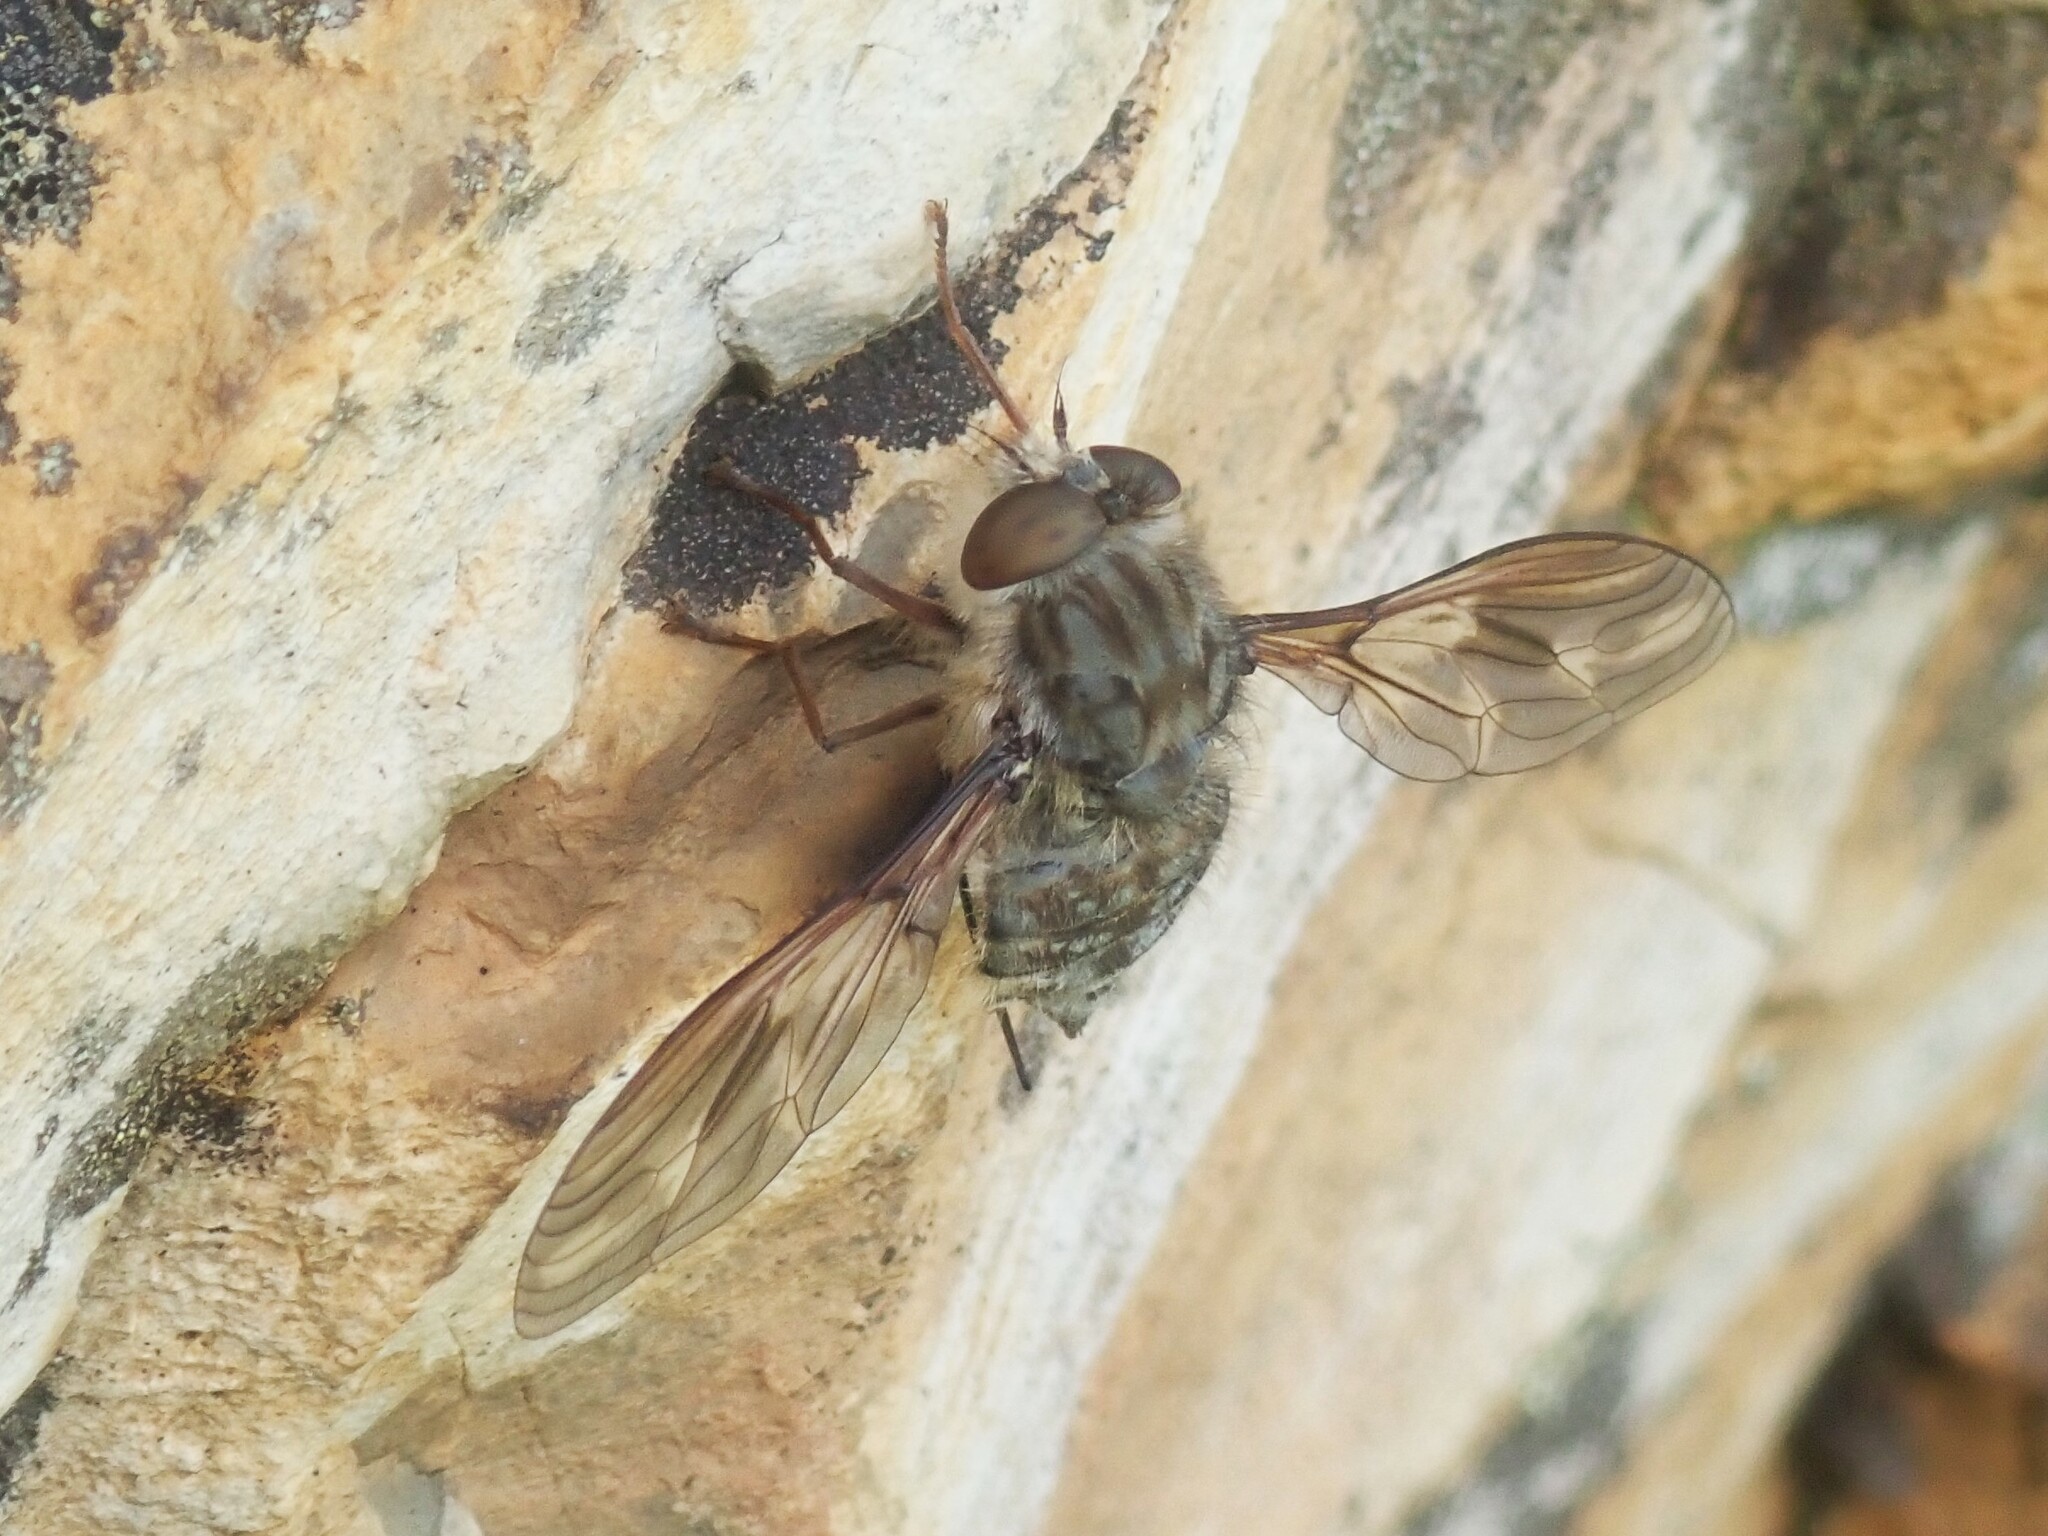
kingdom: Animalia
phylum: Arthropoda
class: Insecta
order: Diptera
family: Nemestrinidae
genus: Prosoeca
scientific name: Prosoeca ganglbaueri
